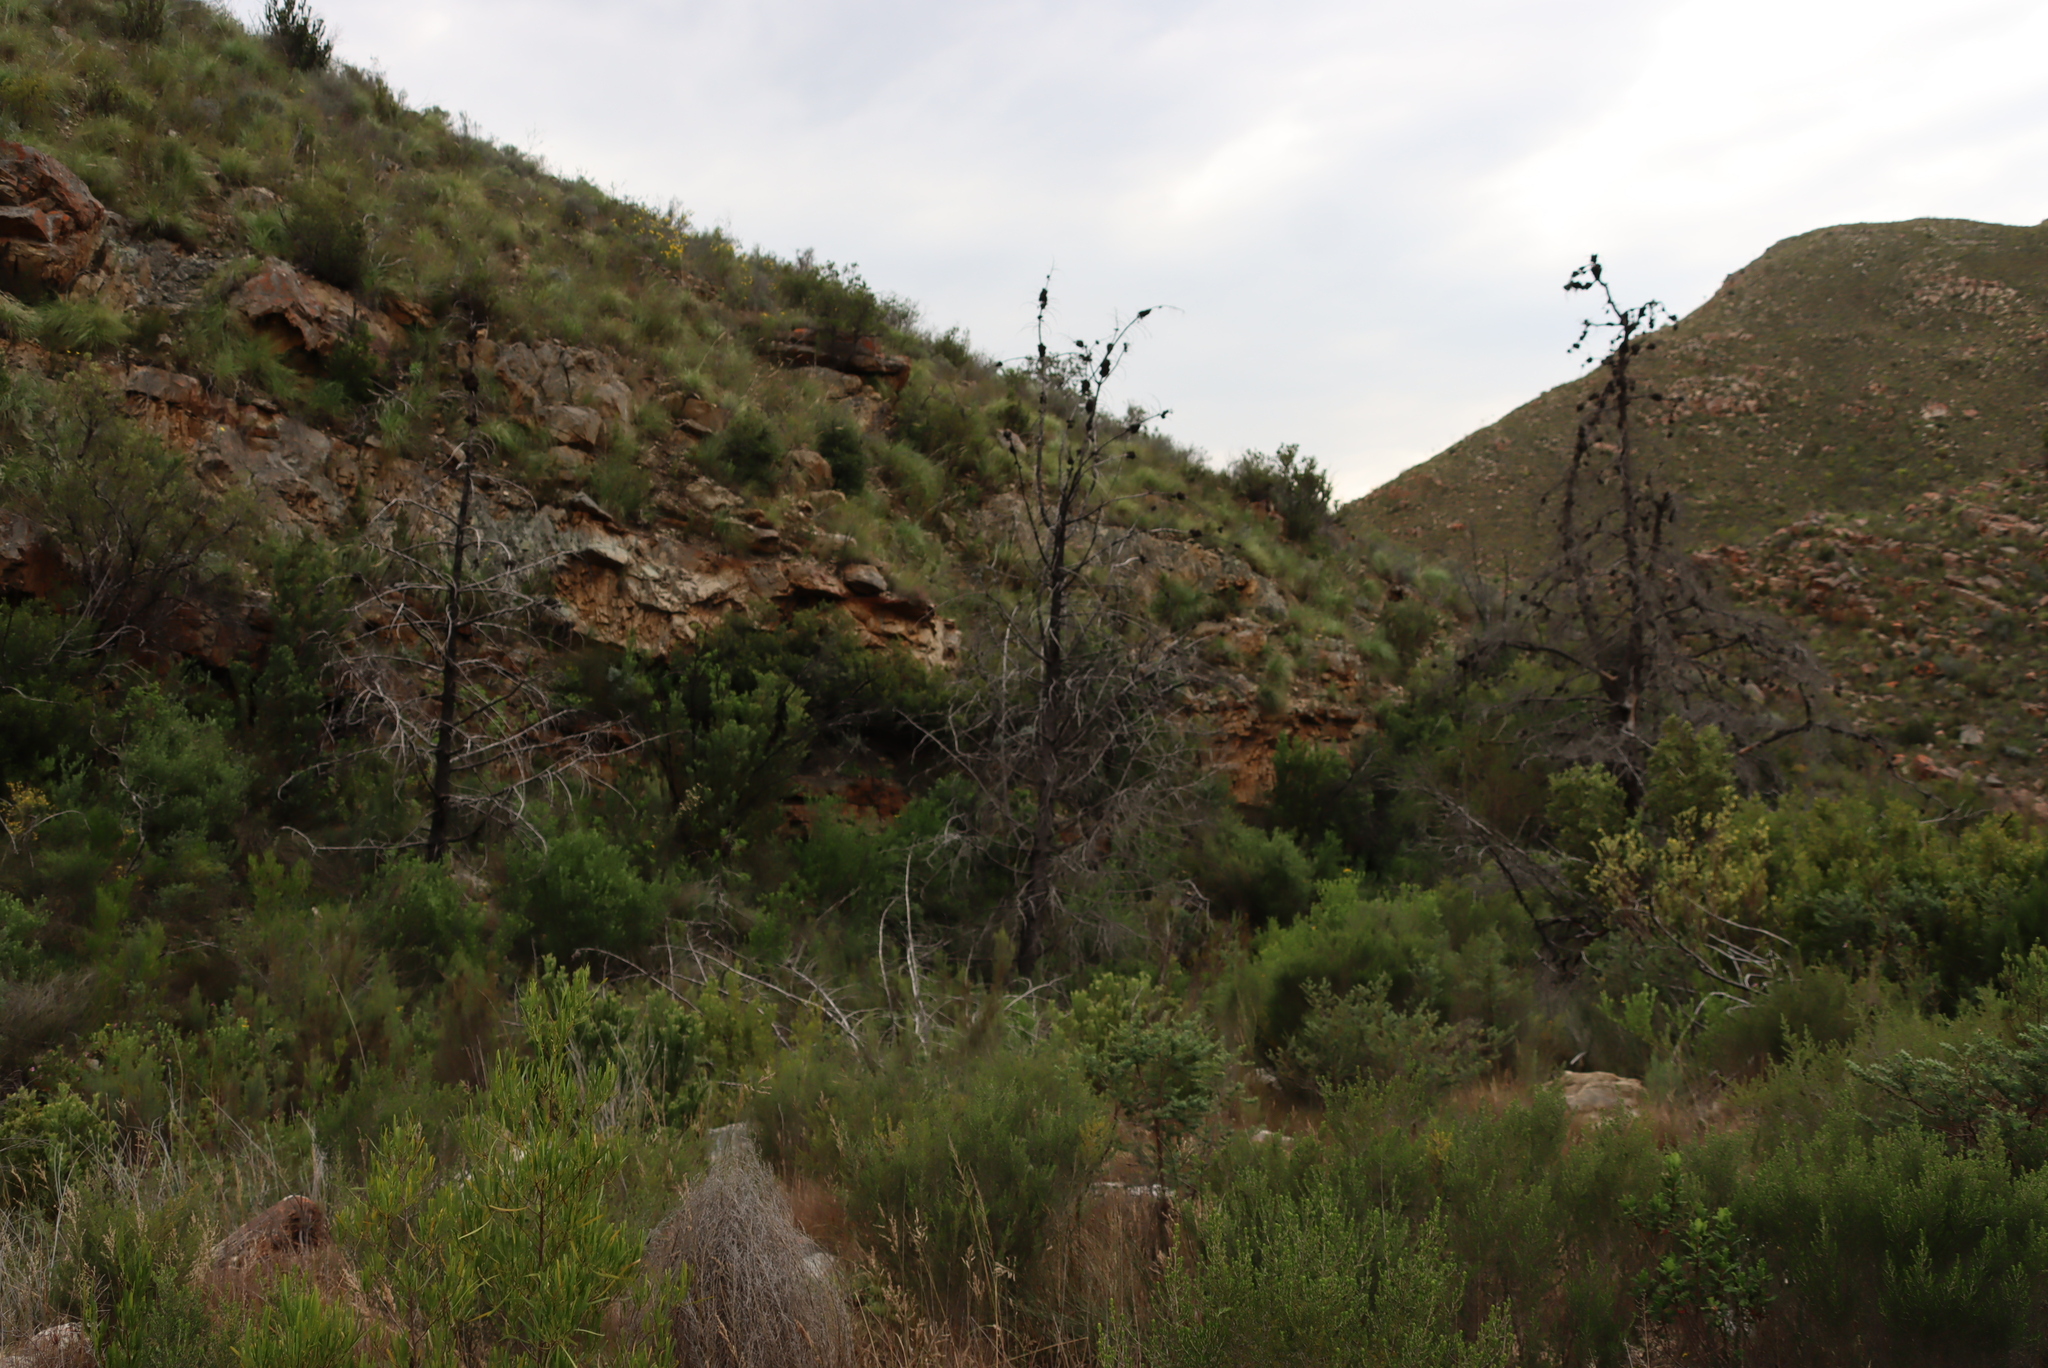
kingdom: Plantae
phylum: Tracheophyta
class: Pinopsida
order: Pinales
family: Cupressaceae
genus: Widdringtonia
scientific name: Widdringtonia schwarzii
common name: Baviaans cedar
